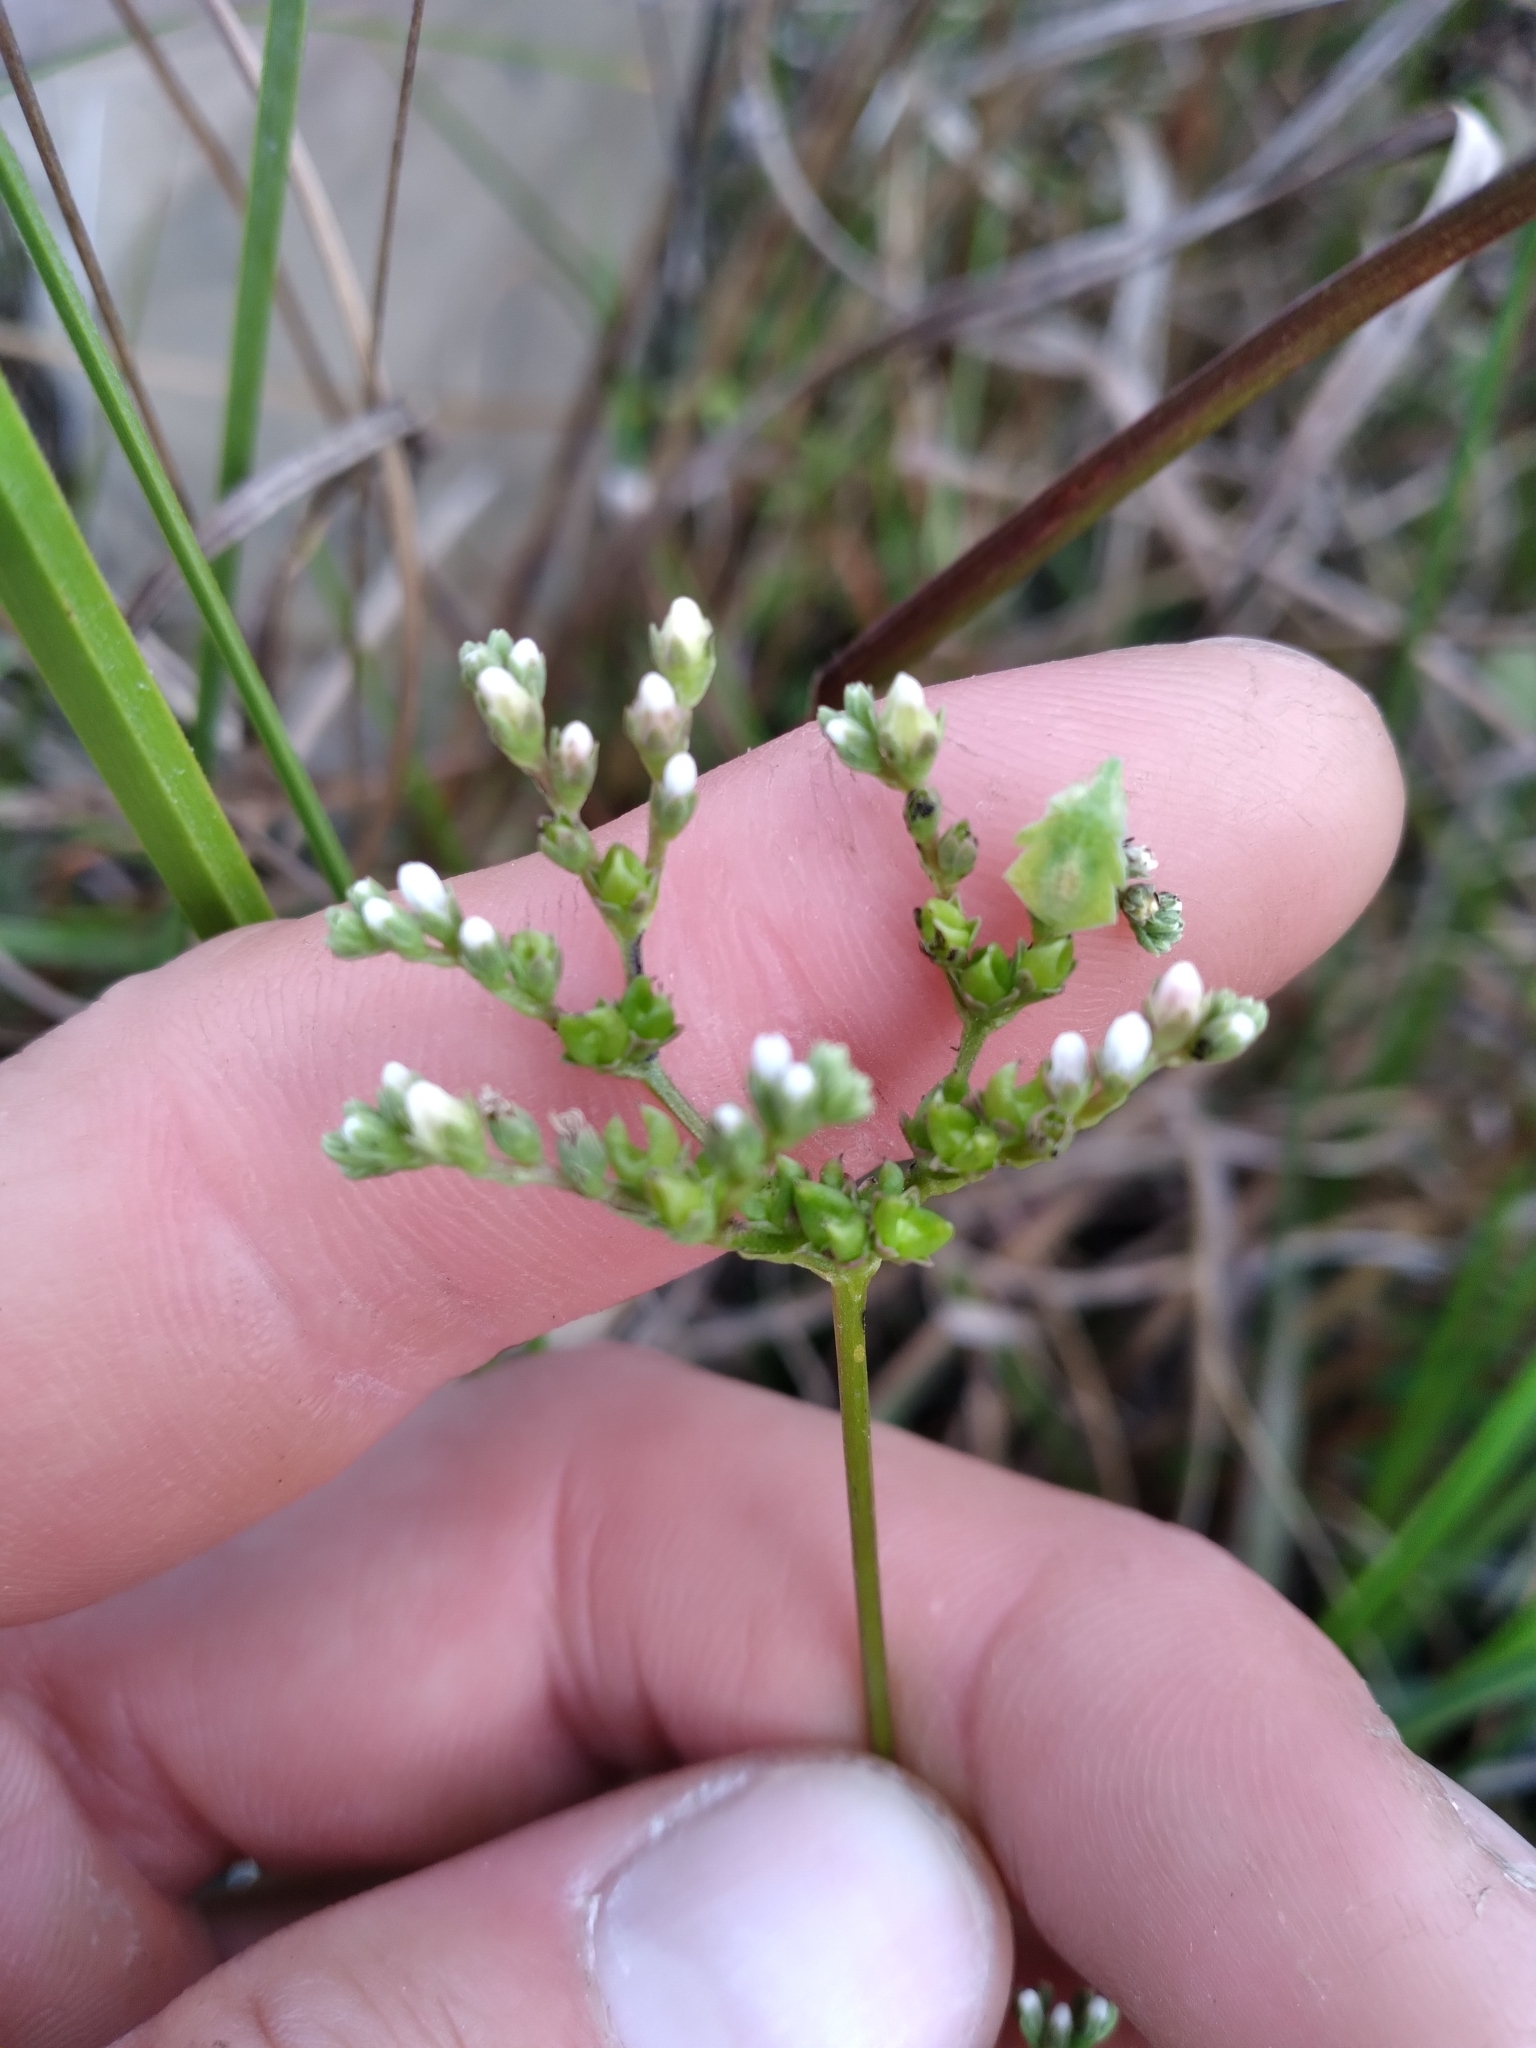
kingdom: Plantae
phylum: Tracheophyta
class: Magnoliopsida
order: Gentianales
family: Loganiaceae
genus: Mitreola
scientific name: Mitreola petiolata
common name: Lax hornpod
